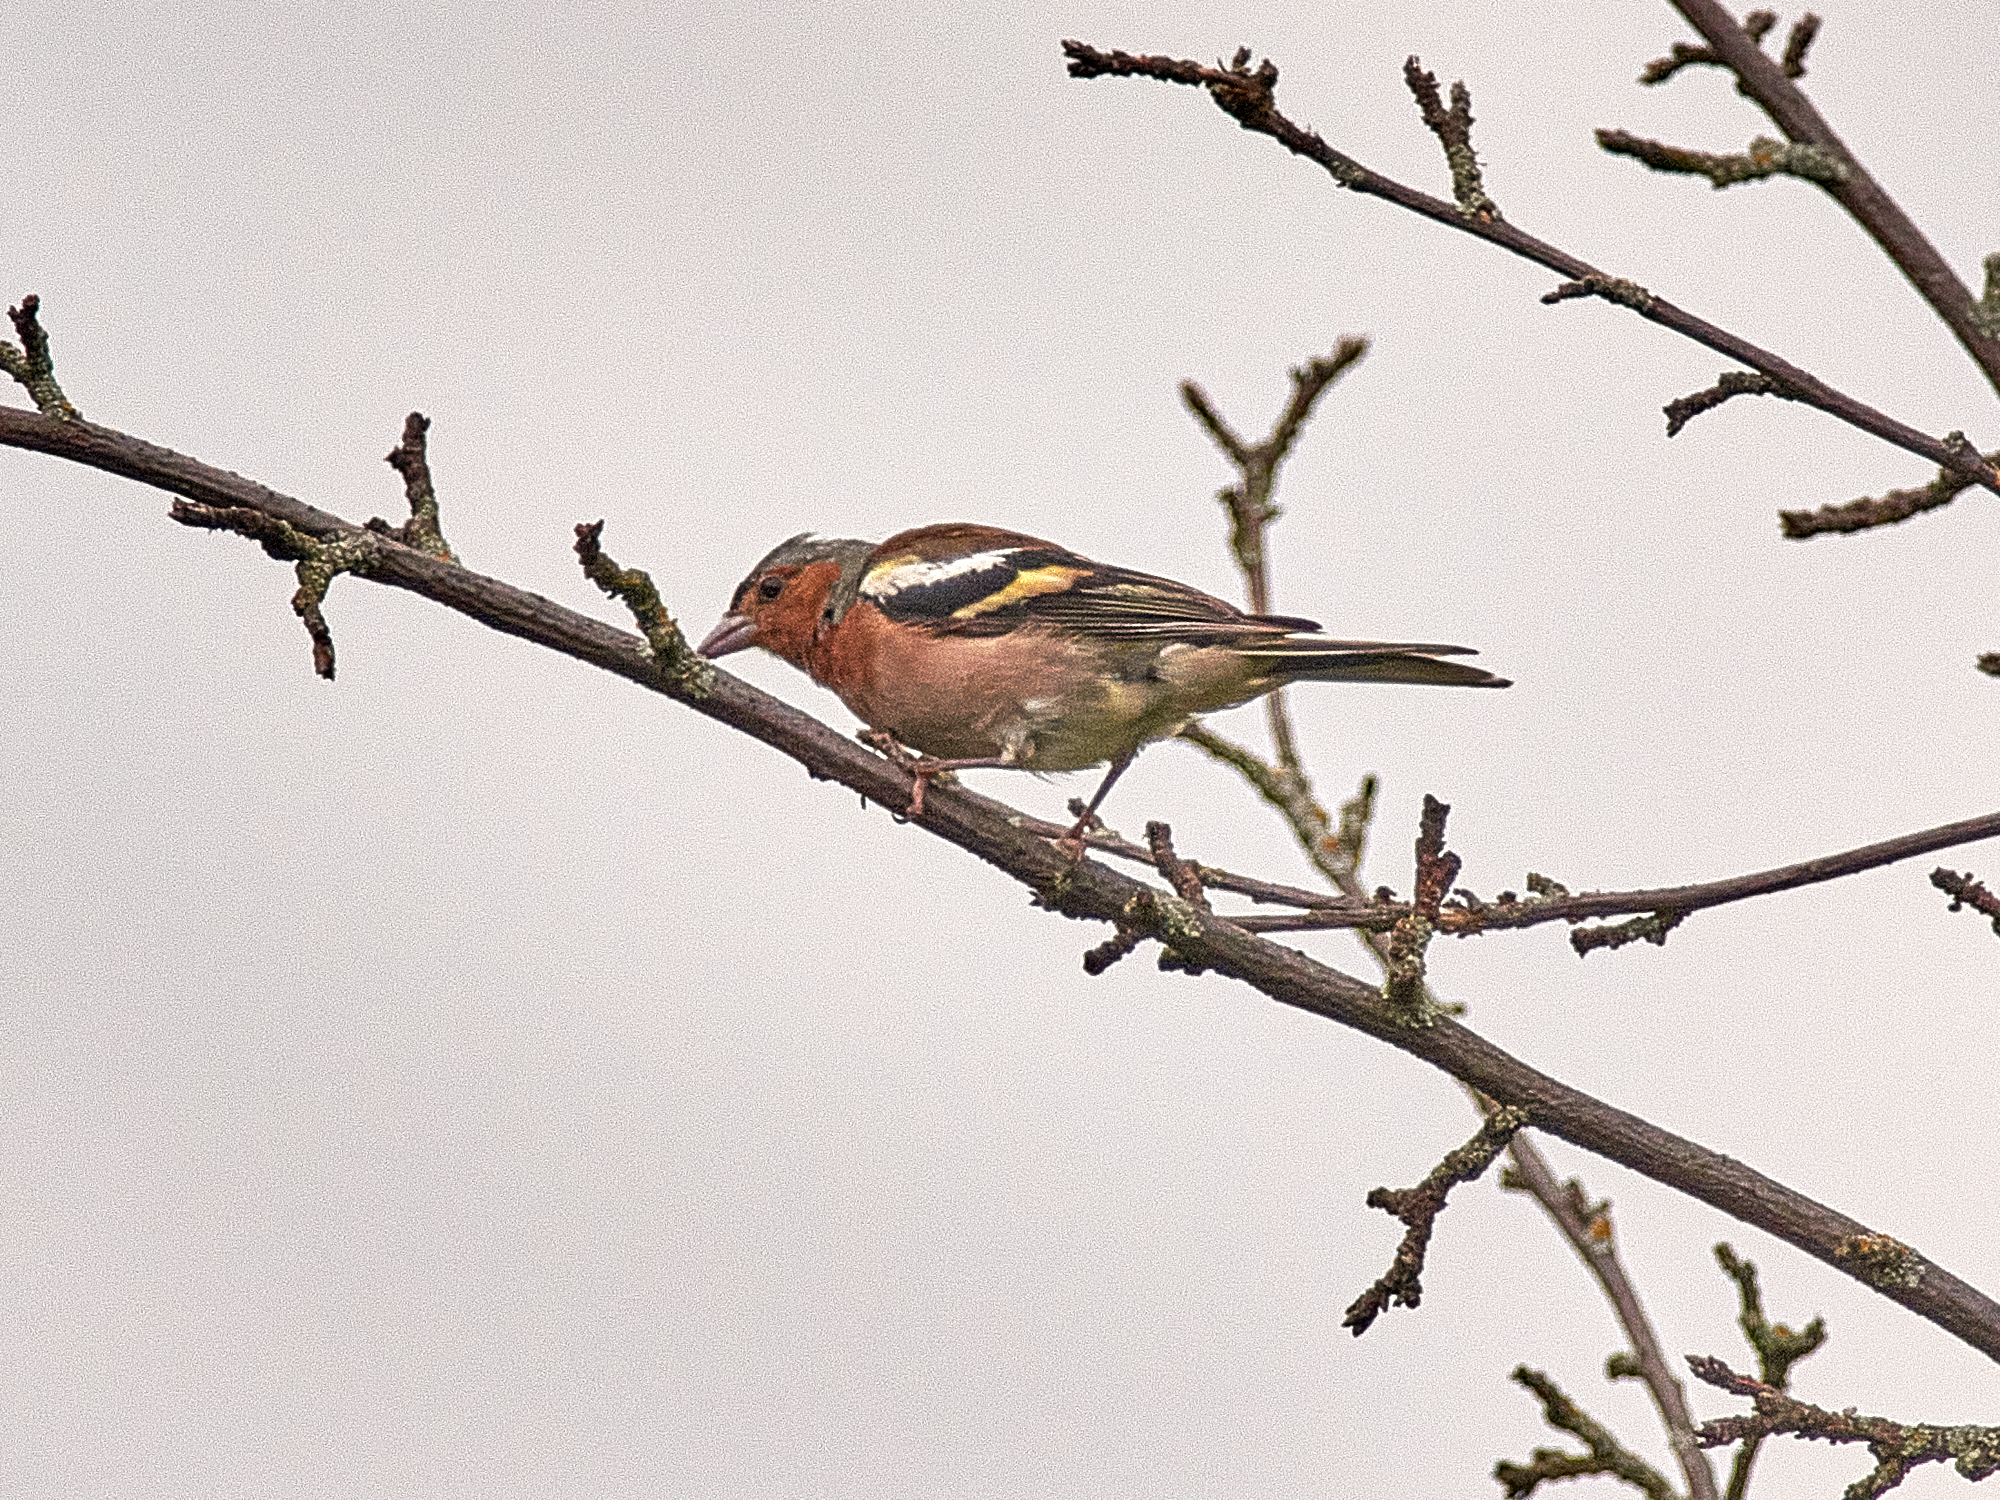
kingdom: Animalia
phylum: Chordata
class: Aves
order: Passeriformes
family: Fringillidae
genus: Fringilla
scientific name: Fringilla coelebs
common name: Common chaffinch
